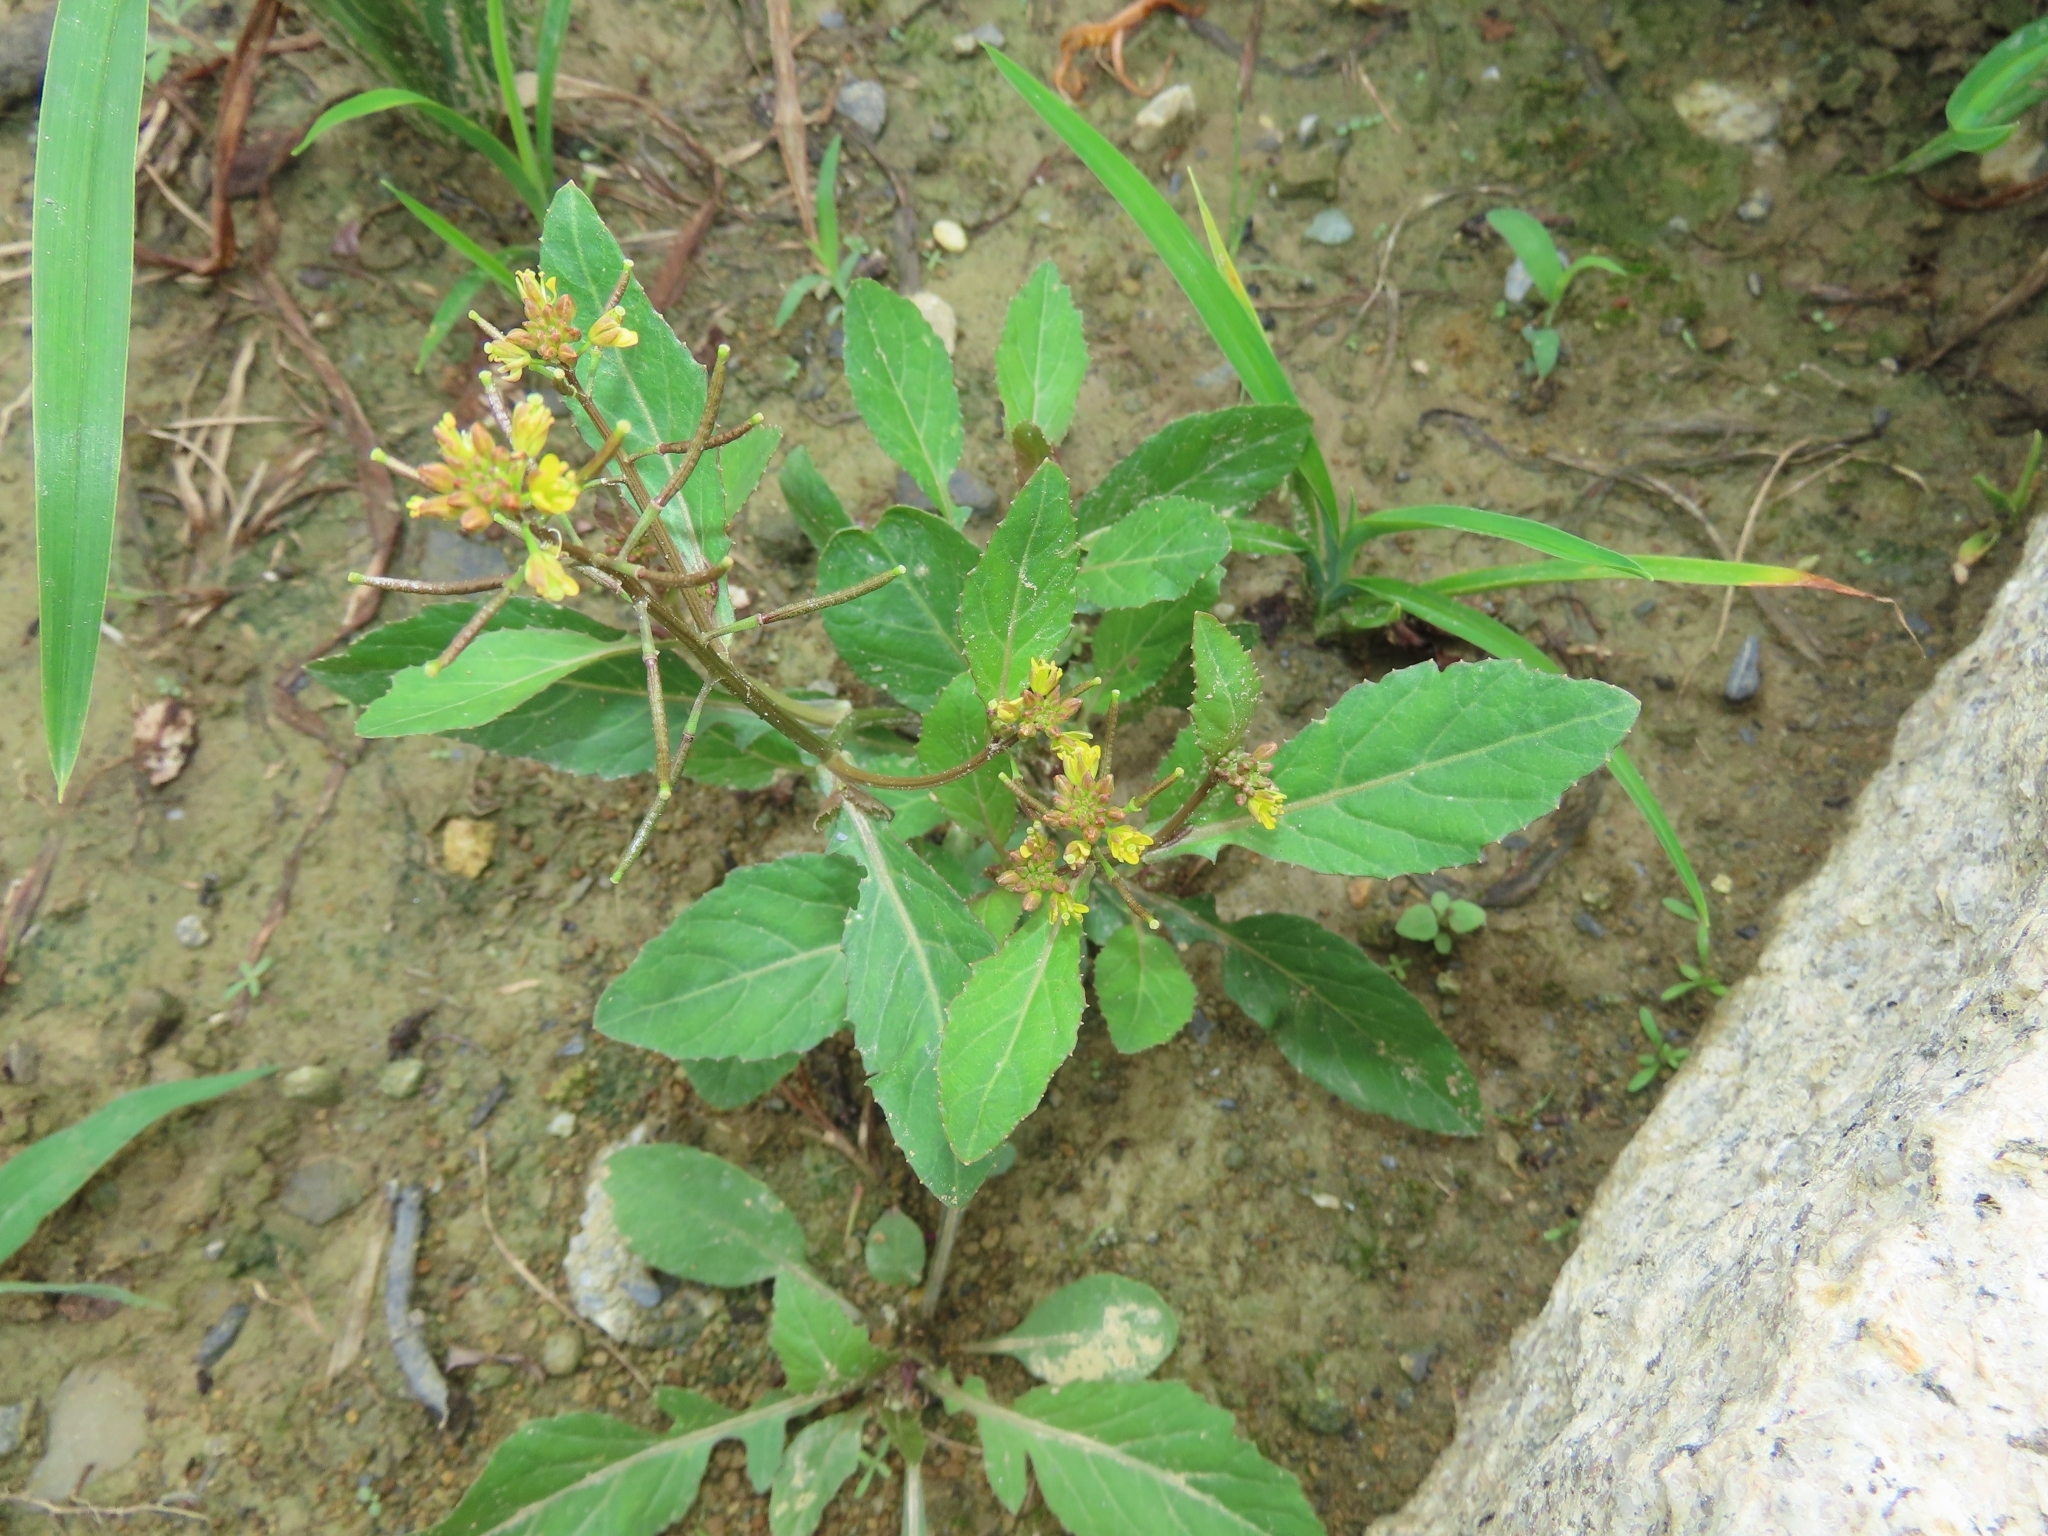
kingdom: Plantae
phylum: Tracheophyta
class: Magnoliopsida
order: Brassicales
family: Brassicaceae
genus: Rorippa
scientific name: Rorippa indica
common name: Variableleaf yellowcress
